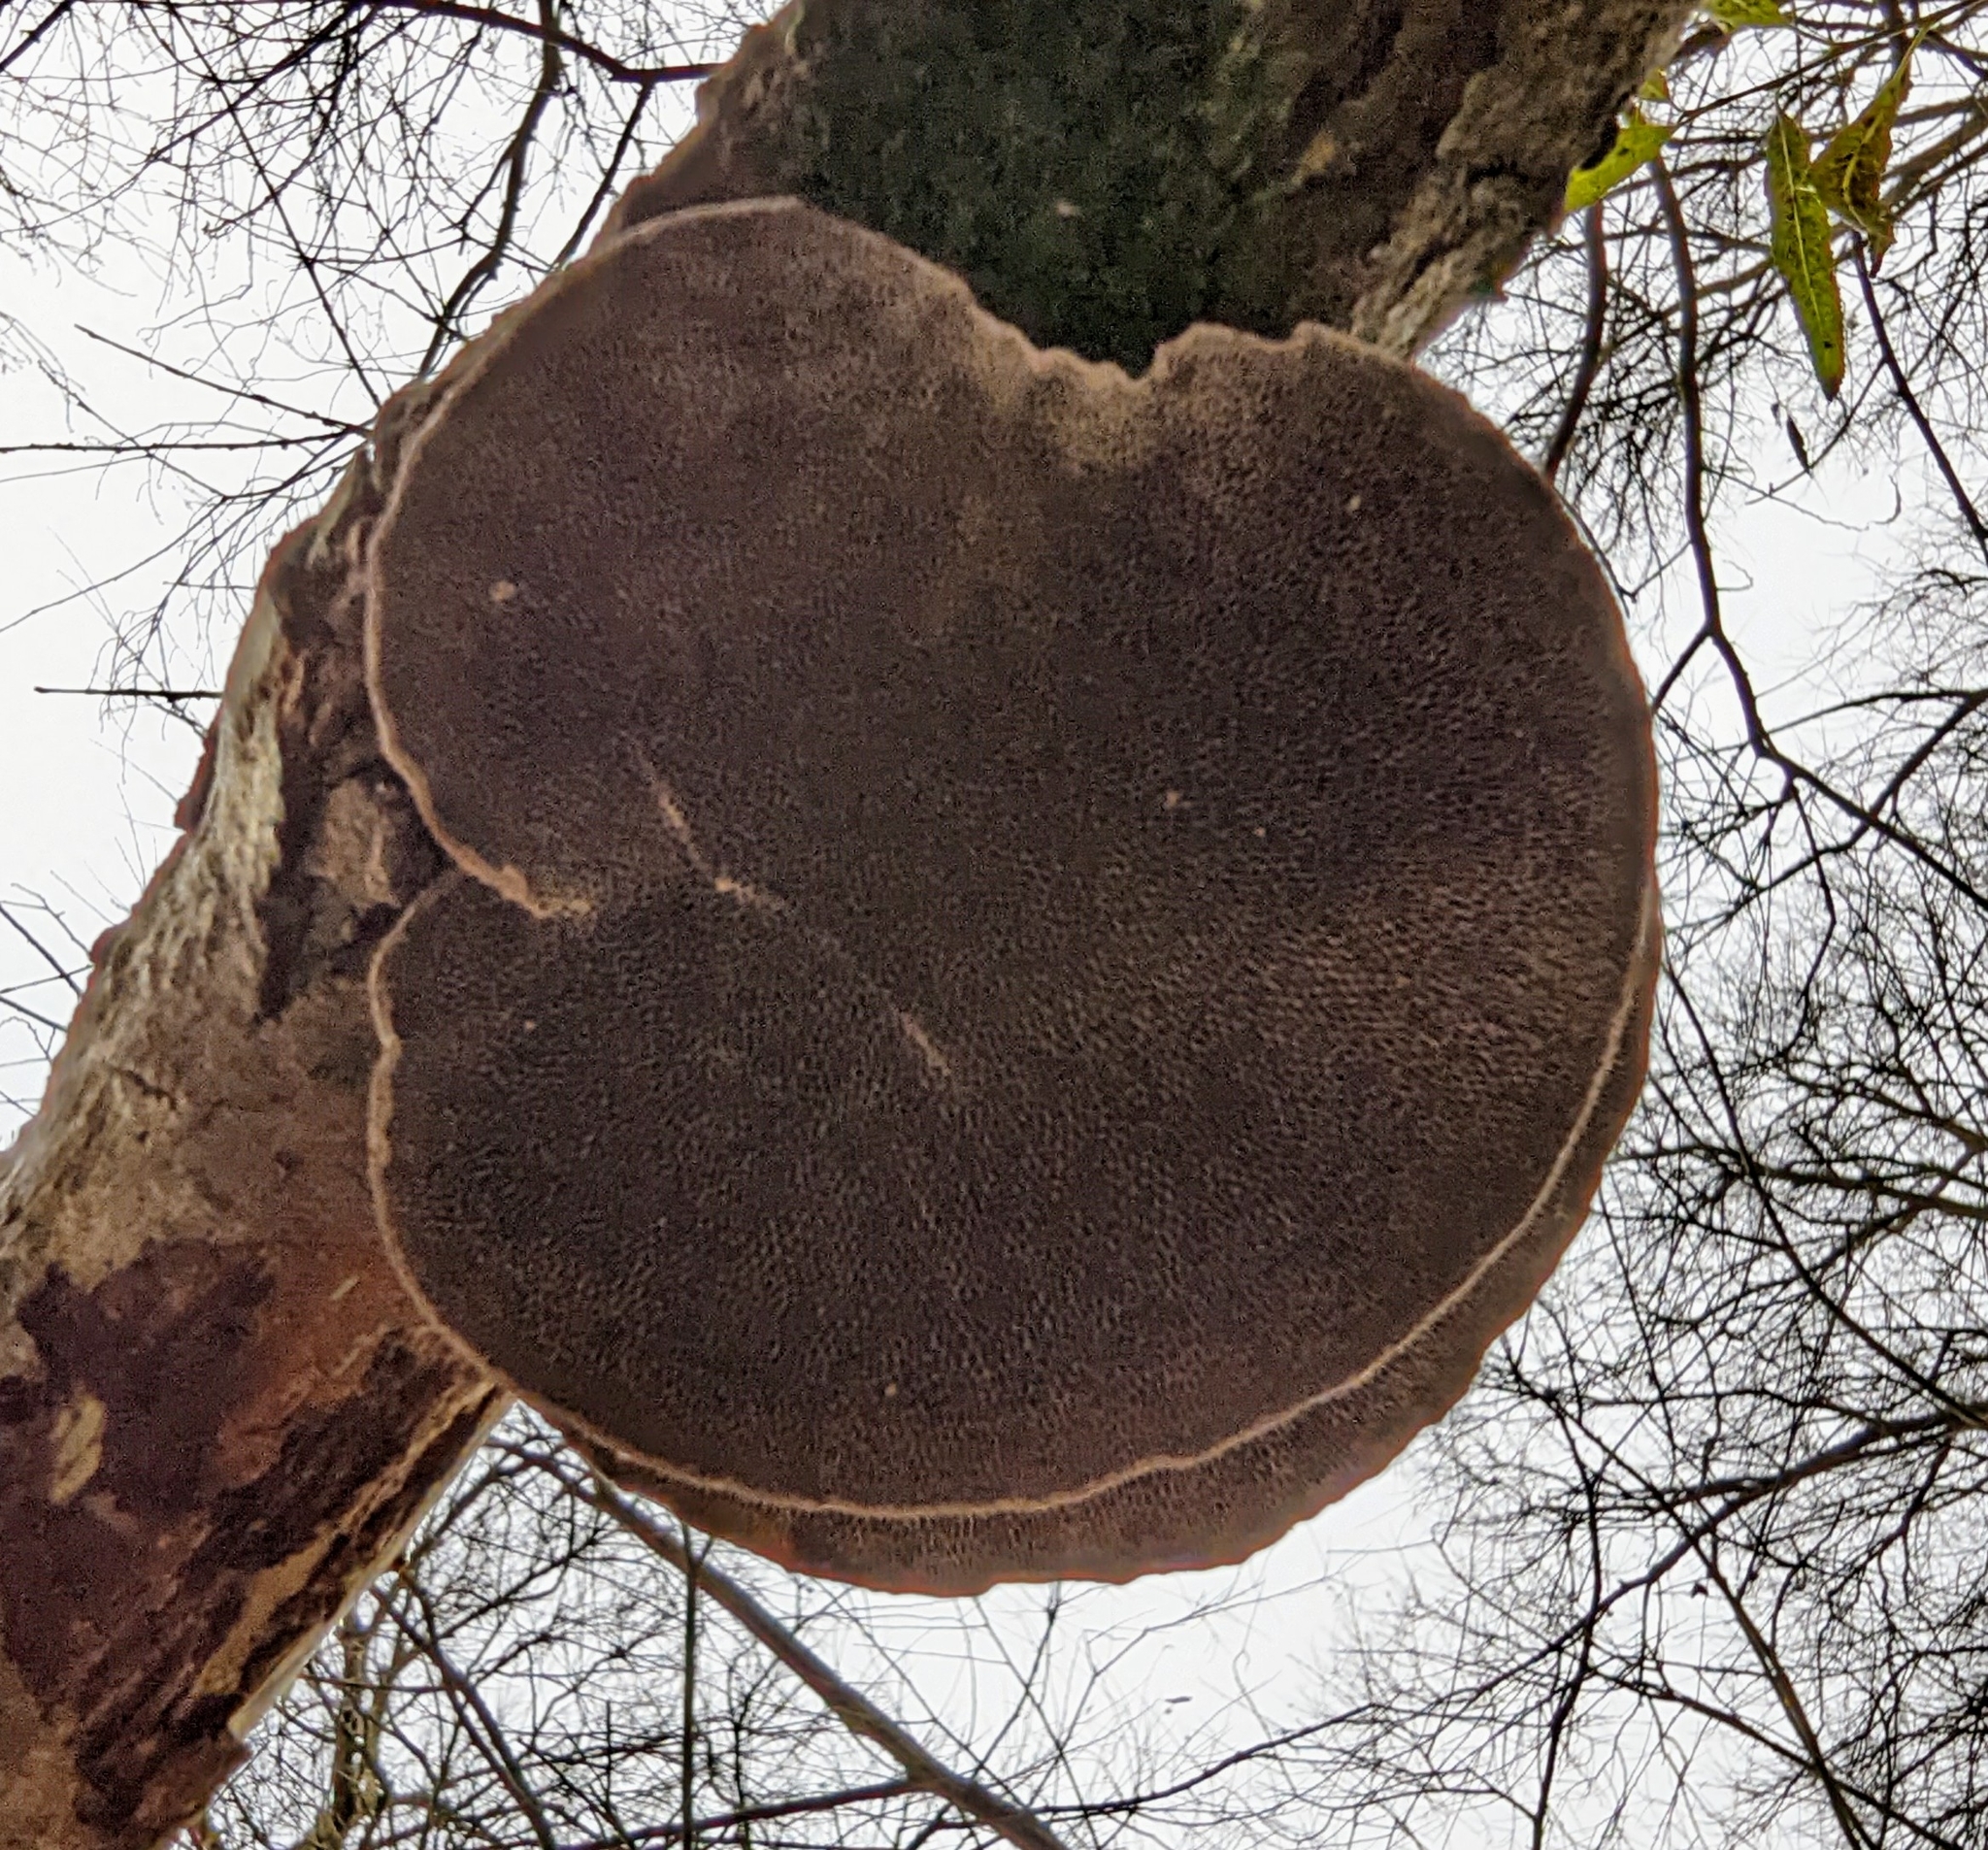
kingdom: Fungi
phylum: Basidiomycota
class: Agaricomycetes
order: Polyporales
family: Polyporaceae
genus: Daedaleopsis
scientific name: Daedaleopsis confragosa
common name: Blushing bracket
